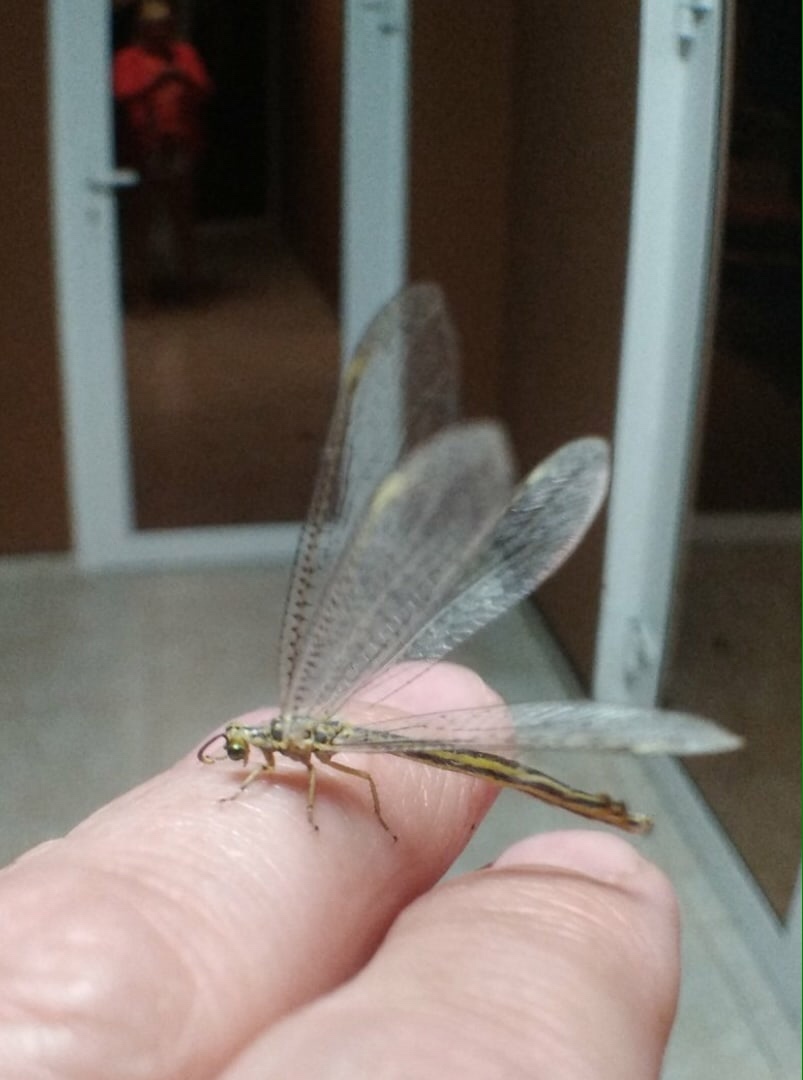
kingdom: Animalia
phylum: Arthropoda
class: Insecta
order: Neuroptera
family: Myrmeleontidae
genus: Myrmecaelurus
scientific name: Myrmecaelurus trigrammus
